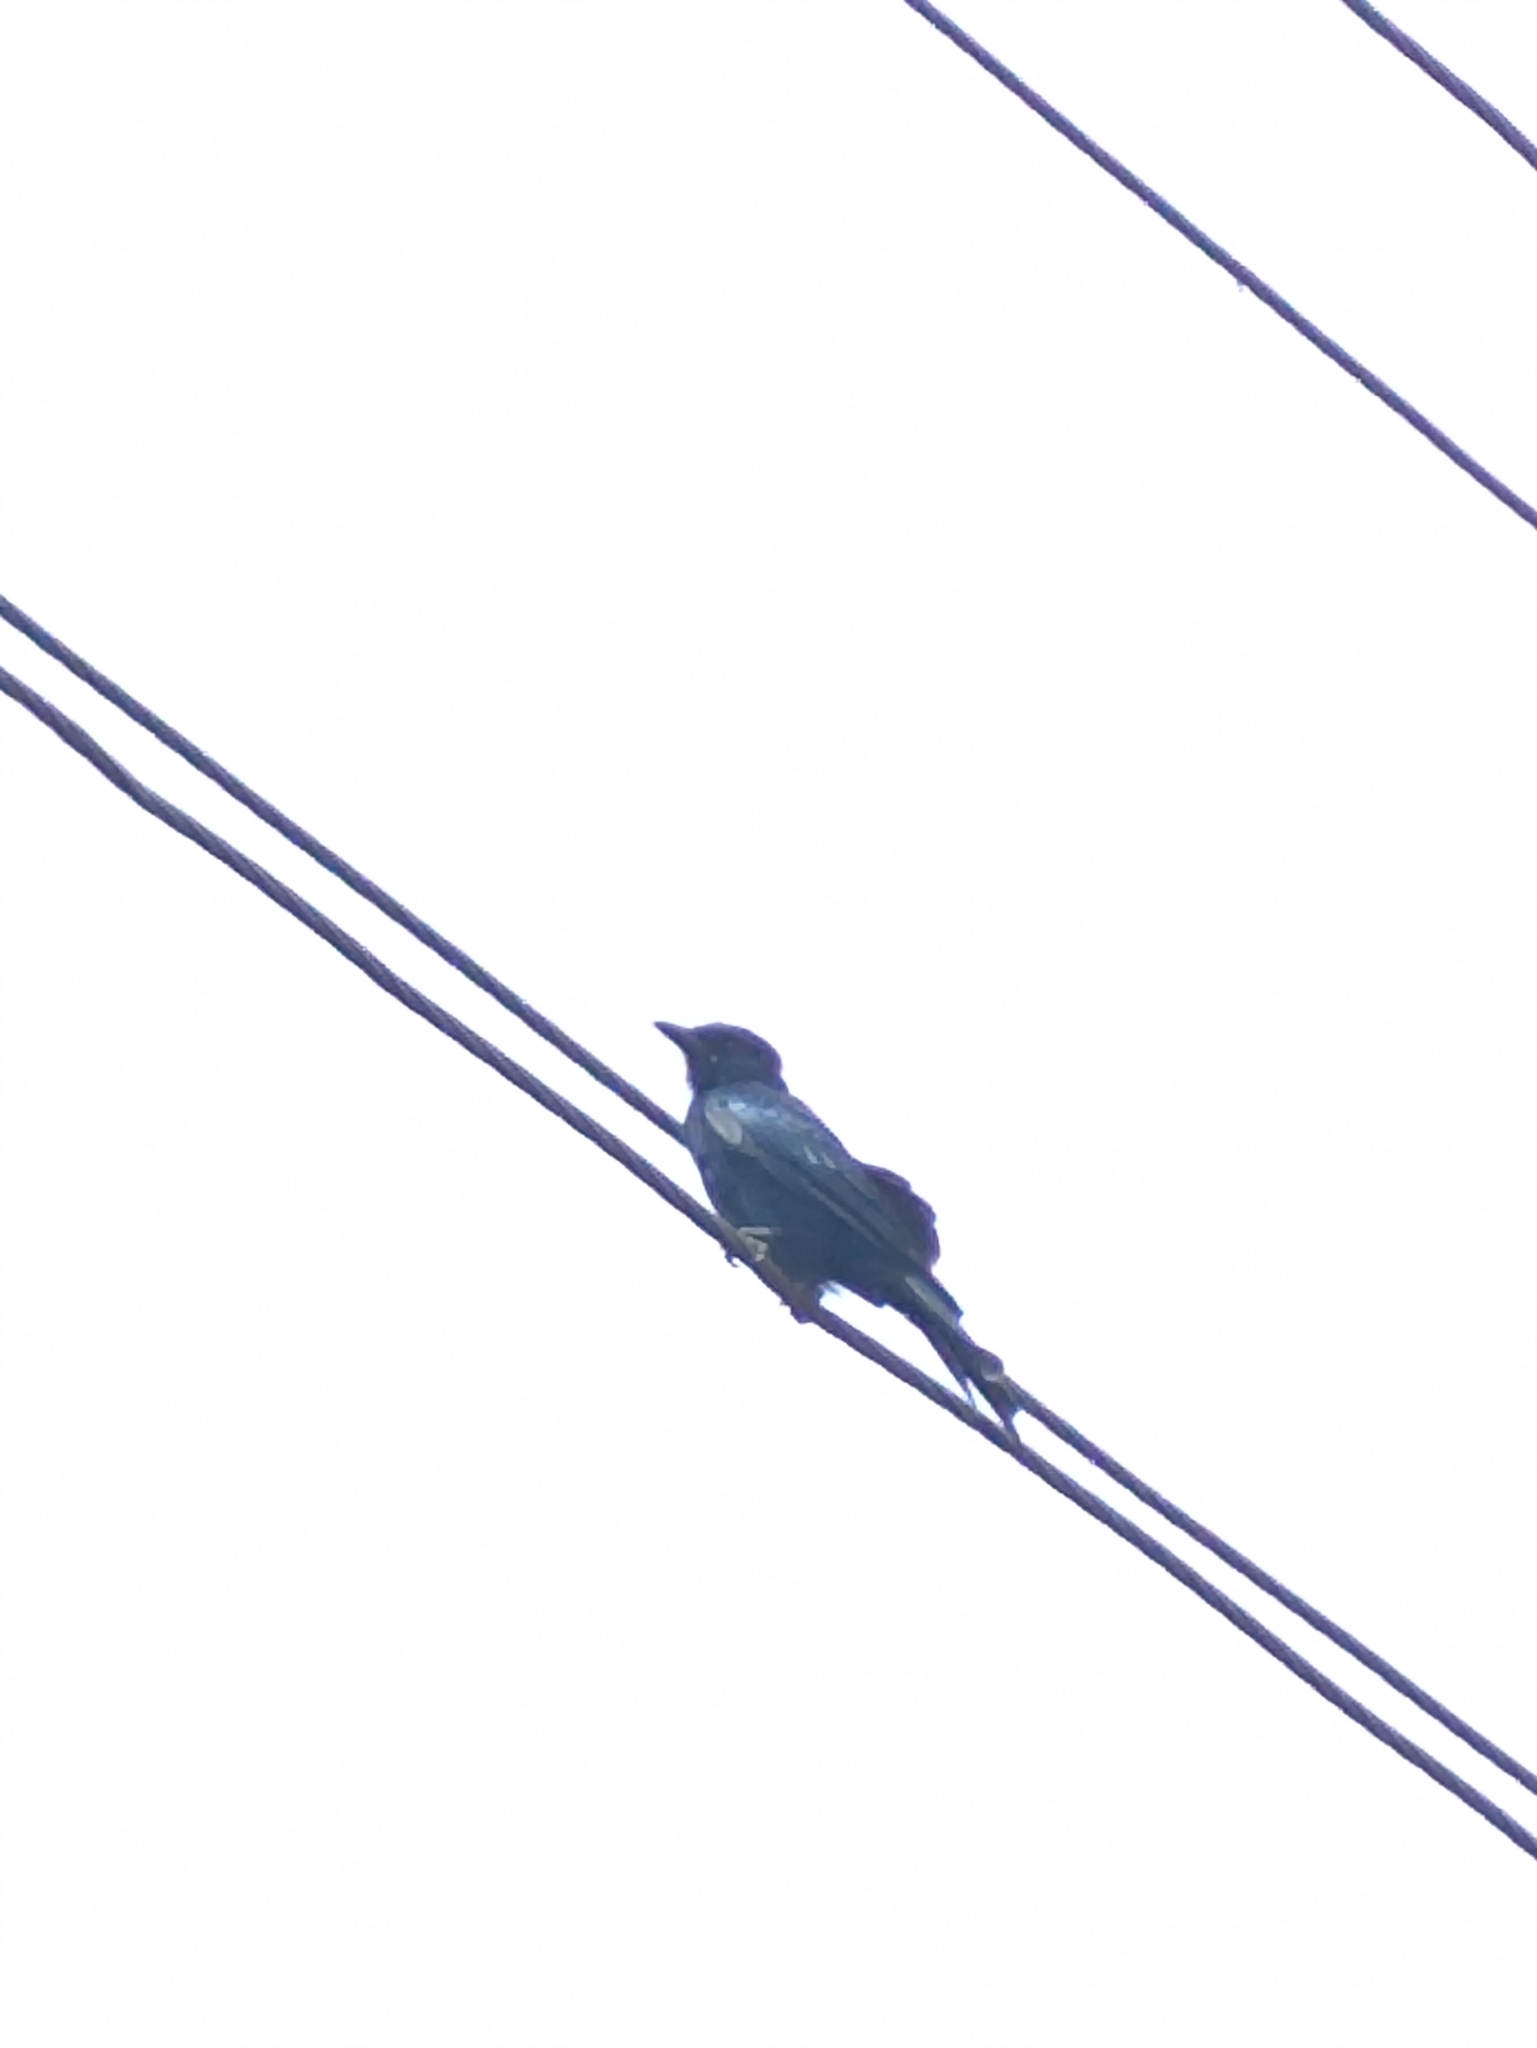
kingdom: Animalia
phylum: Chordata
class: Aves
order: Passeriformes
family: Dicruridae
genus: Dicrurus
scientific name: Dicrurus macrocercus
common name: Black drongo
